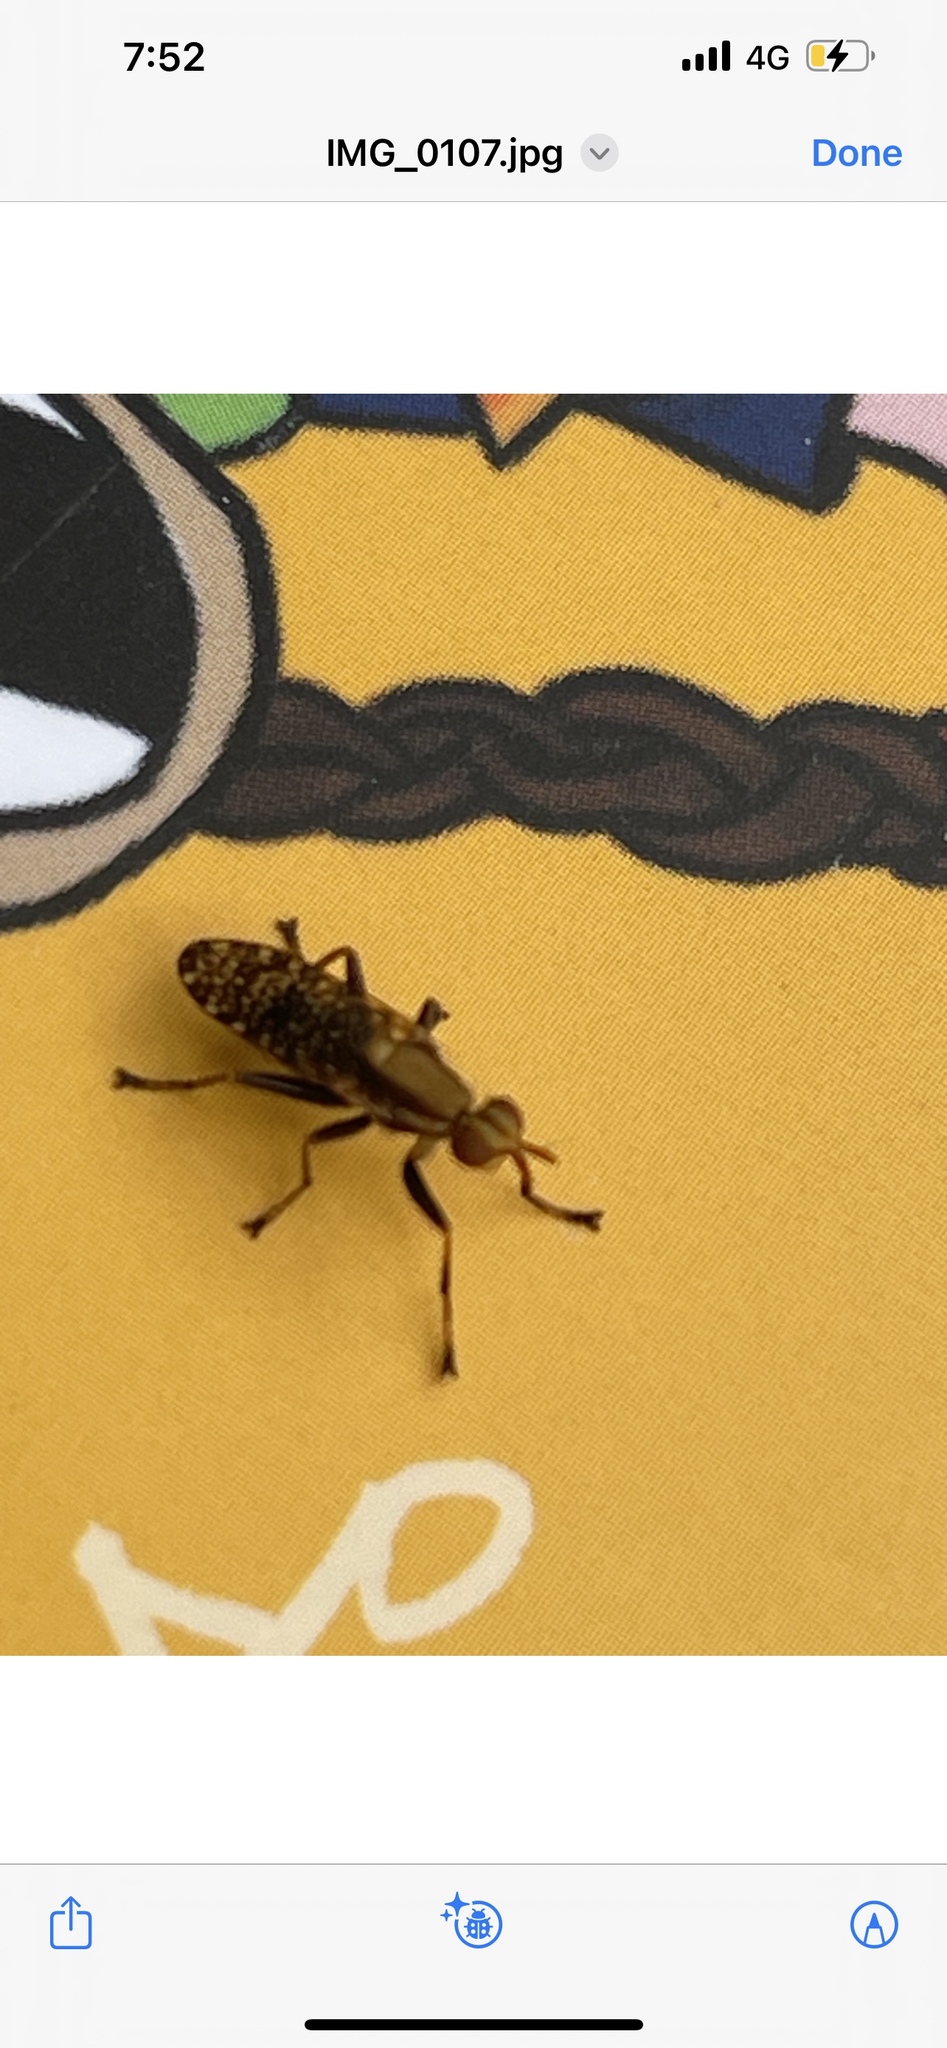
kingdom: Animalia
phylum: Arthropoda
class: Insecta
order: Diptera
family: Sciomyzidae
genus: Neolimnia
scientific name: Neolimnia tranquilla
